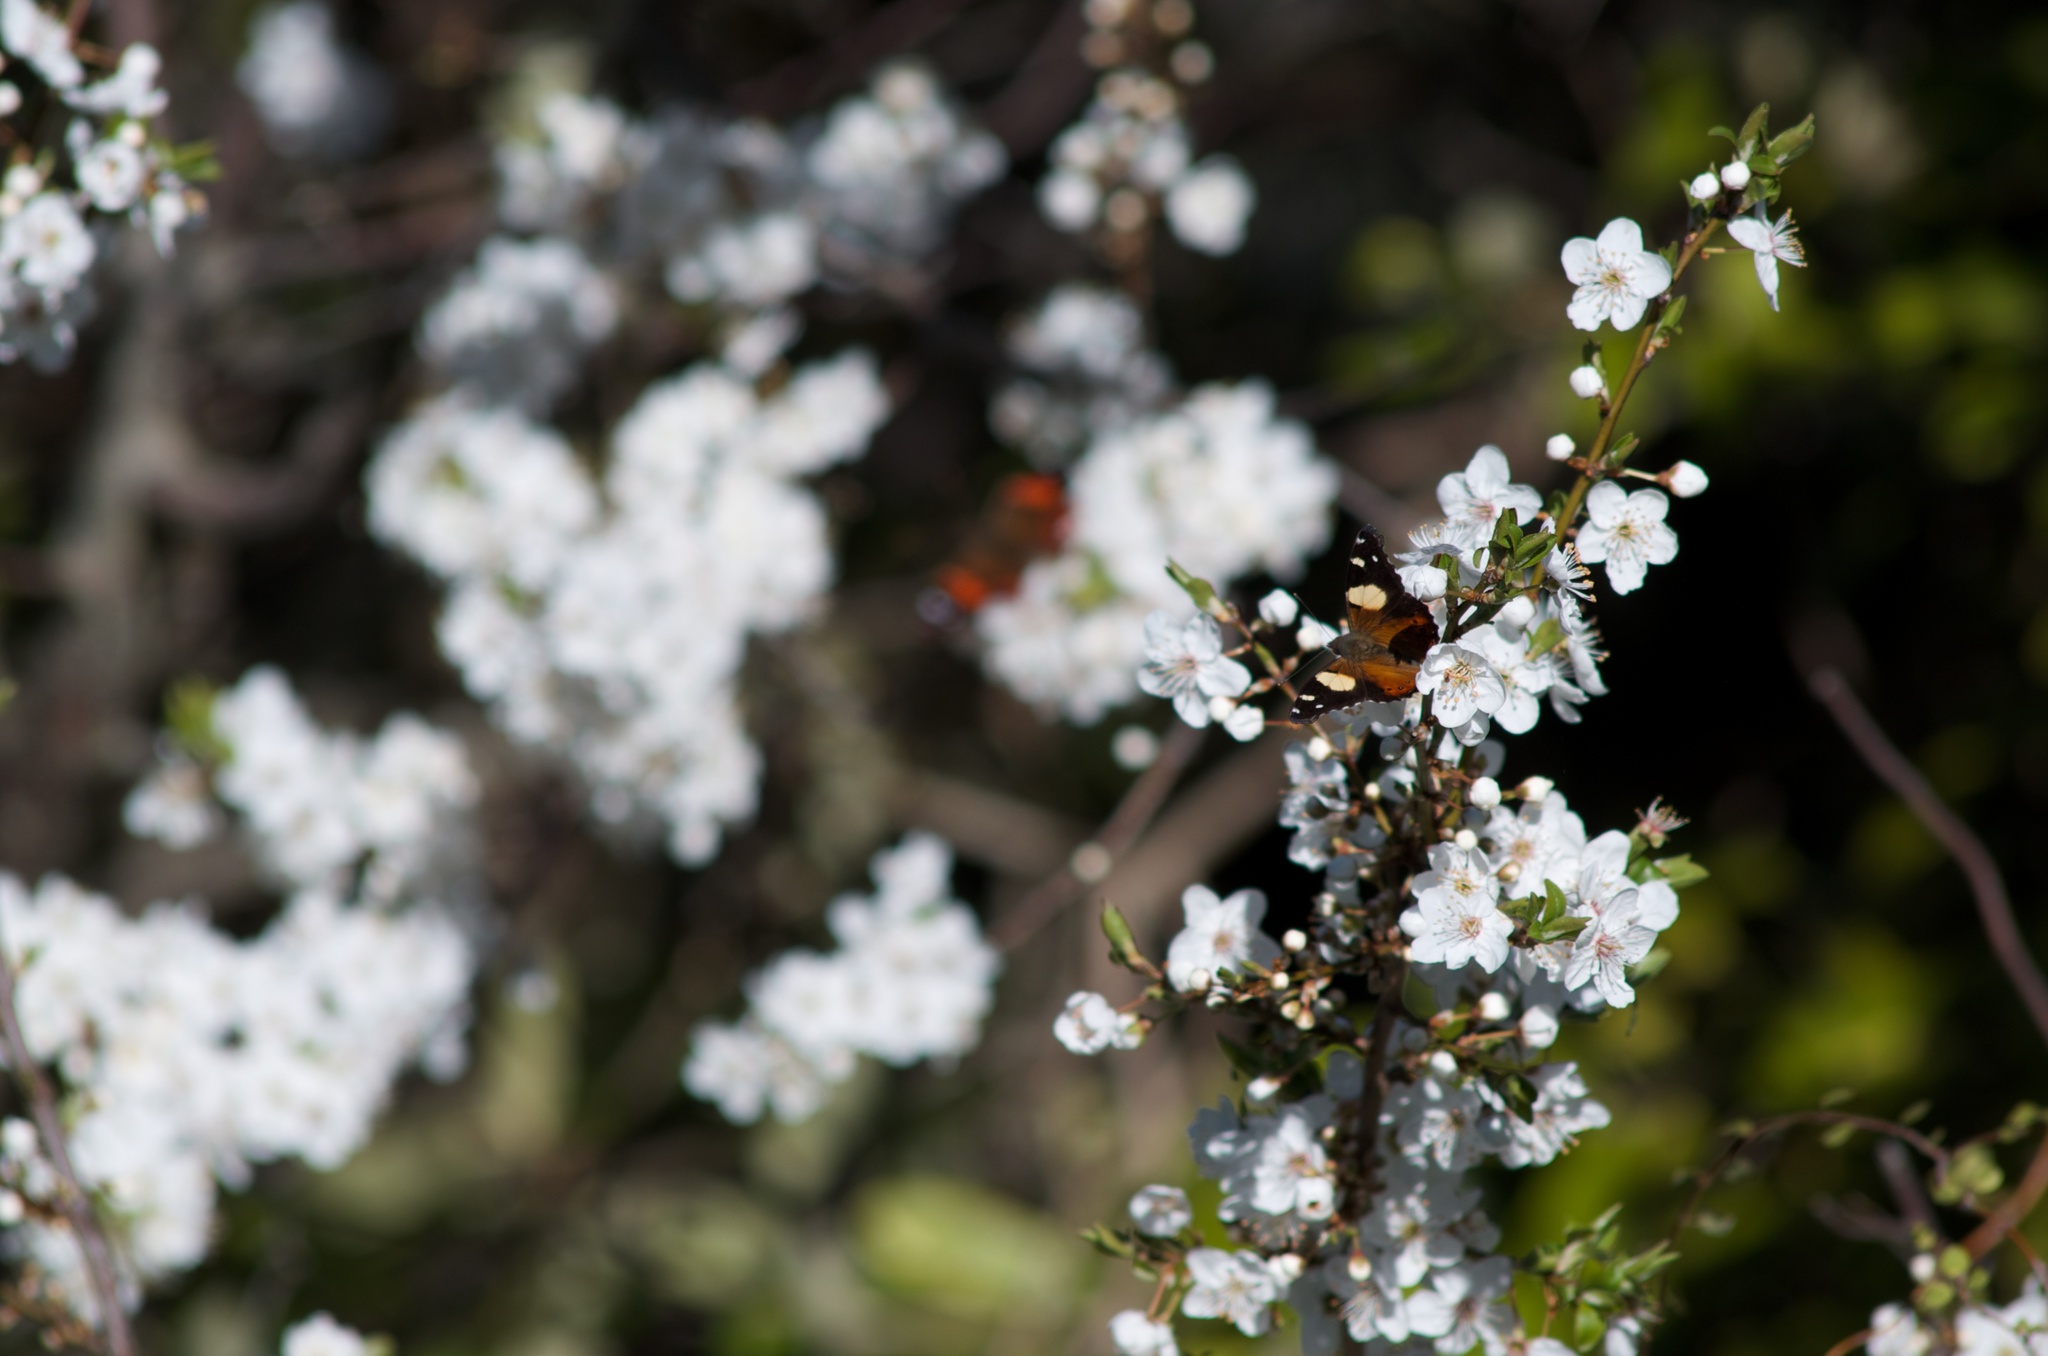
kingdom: Animalia
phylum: Arthropoda
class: Insecta
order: Lepidoptera
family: Nymphalidae
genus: Vanessa
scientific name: Vanessa itea
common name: Yellow admiral
